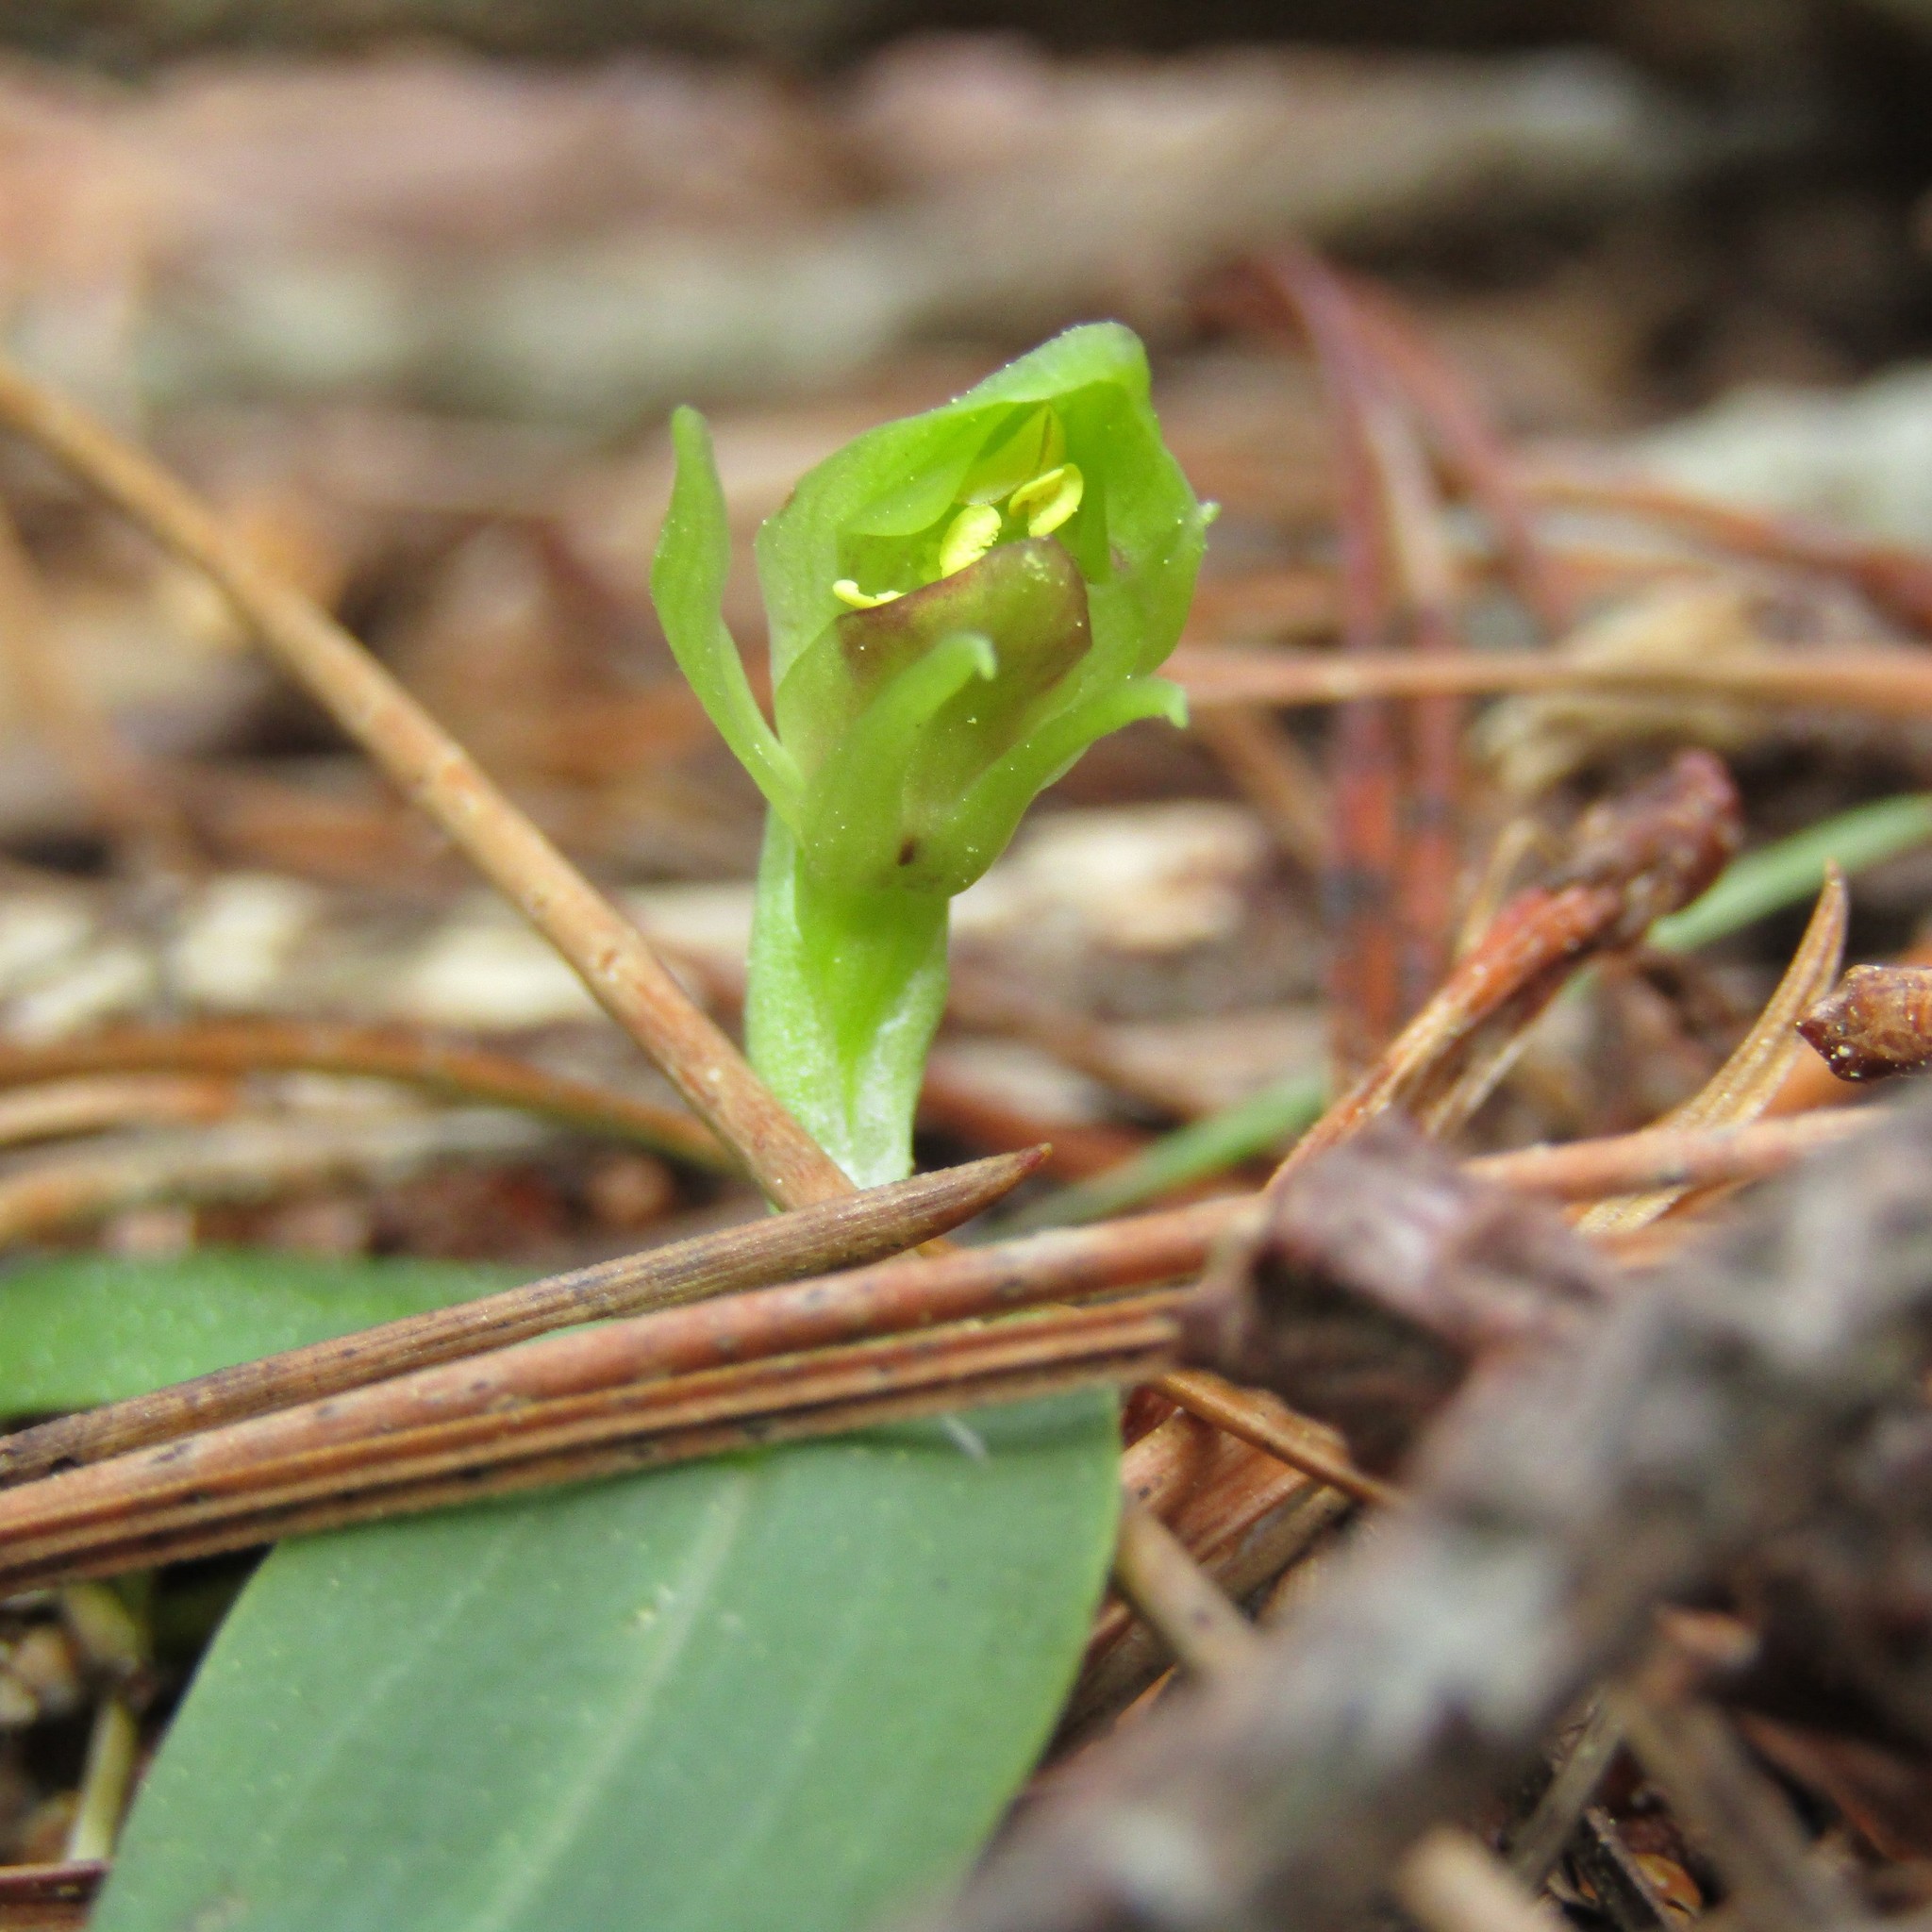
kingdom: Plantae
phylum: Tracheophyta
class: Liliopsida
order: Asparagales
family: Orchidaceae
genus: Chiloglottis
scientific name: Chiloglottis cornuta
